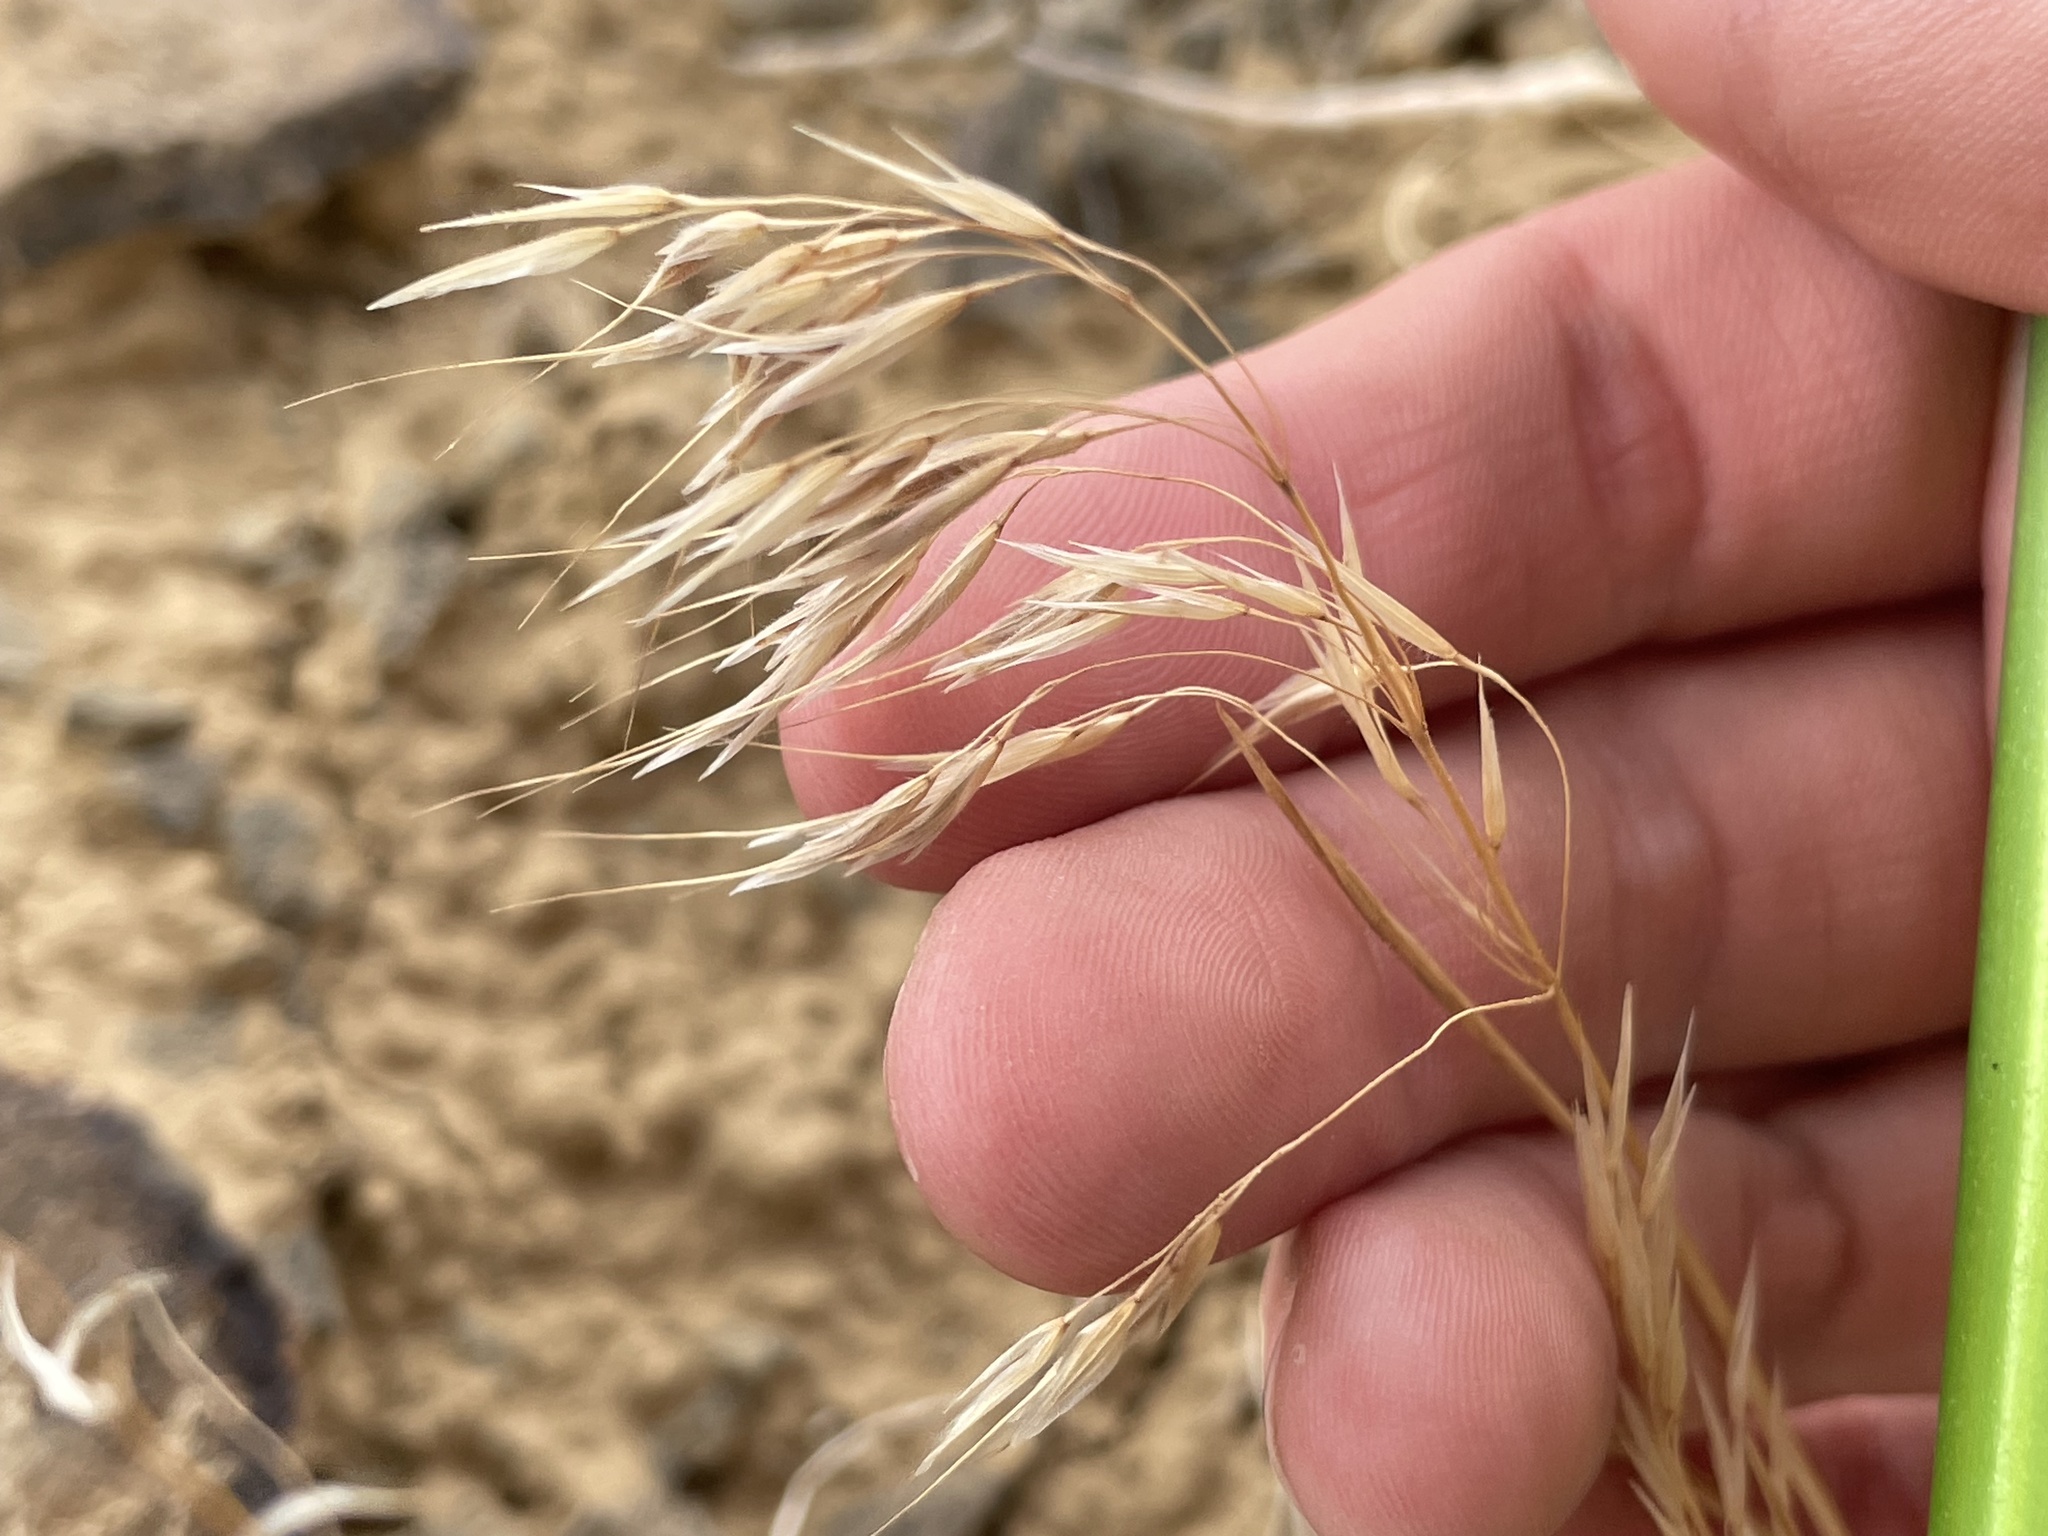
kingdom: Plantae
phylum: Tracheophyta
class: Liliopsida
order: Poales
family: Poaceae
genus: Bromus
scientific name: Bromus tectorum
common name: Cheatgrass
